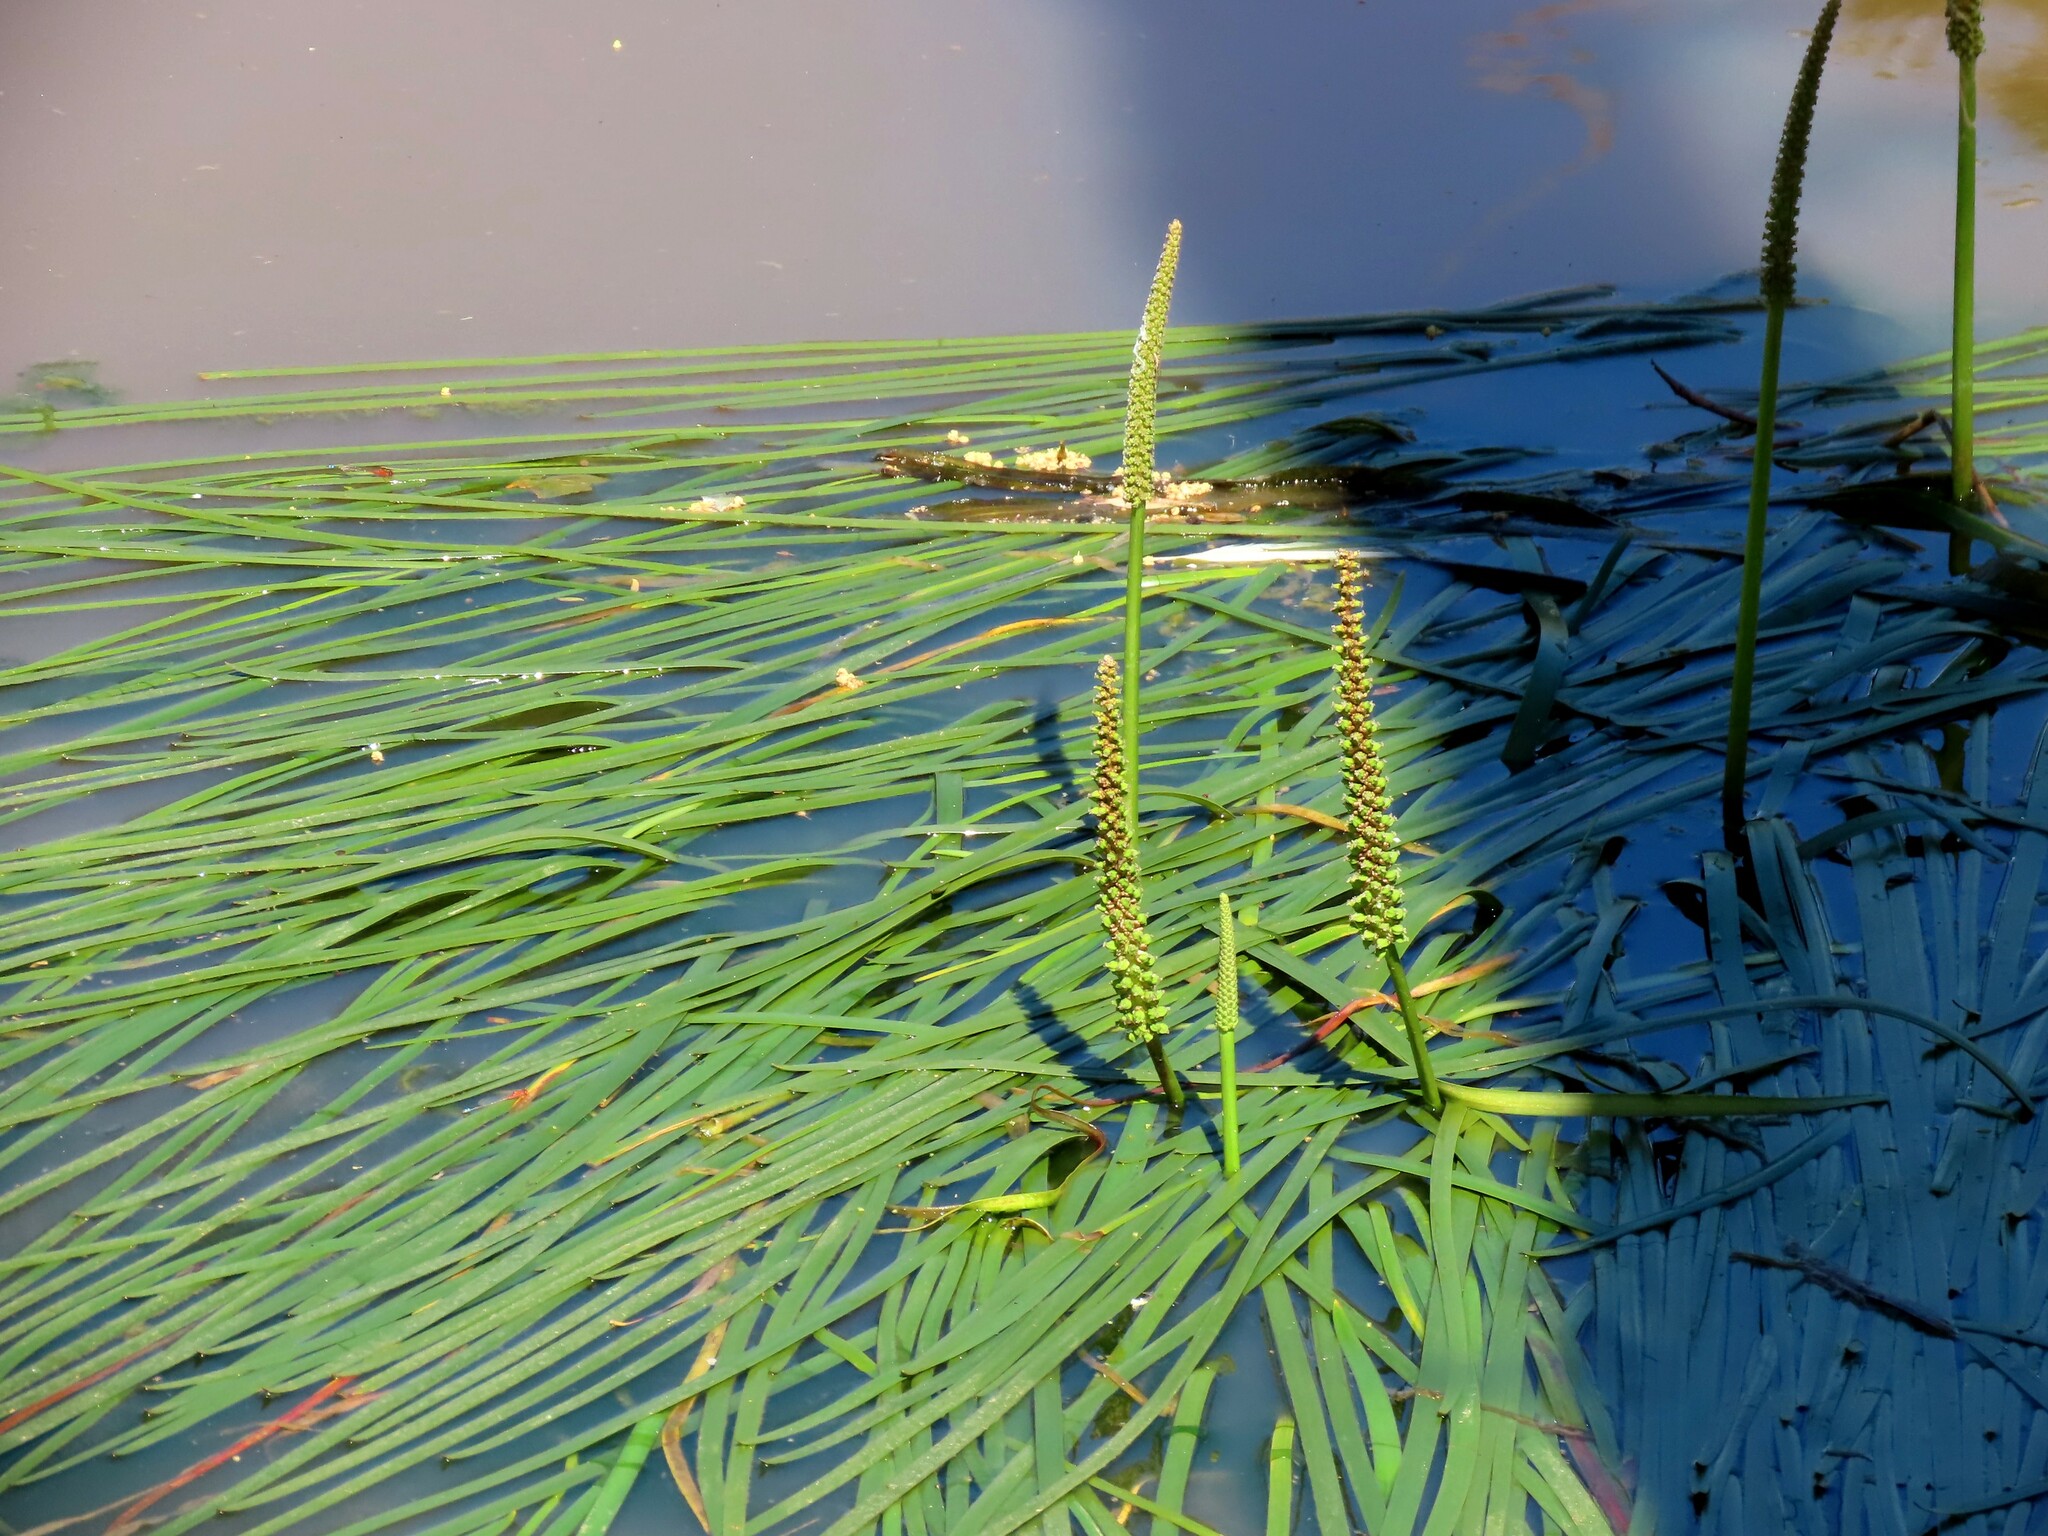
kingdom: Plantae
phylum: Tracheophyta
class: Liliopsida
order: Alismatales
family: Juncaginaceae
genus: Cycnogeton
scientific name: Cycnogeton procerum
